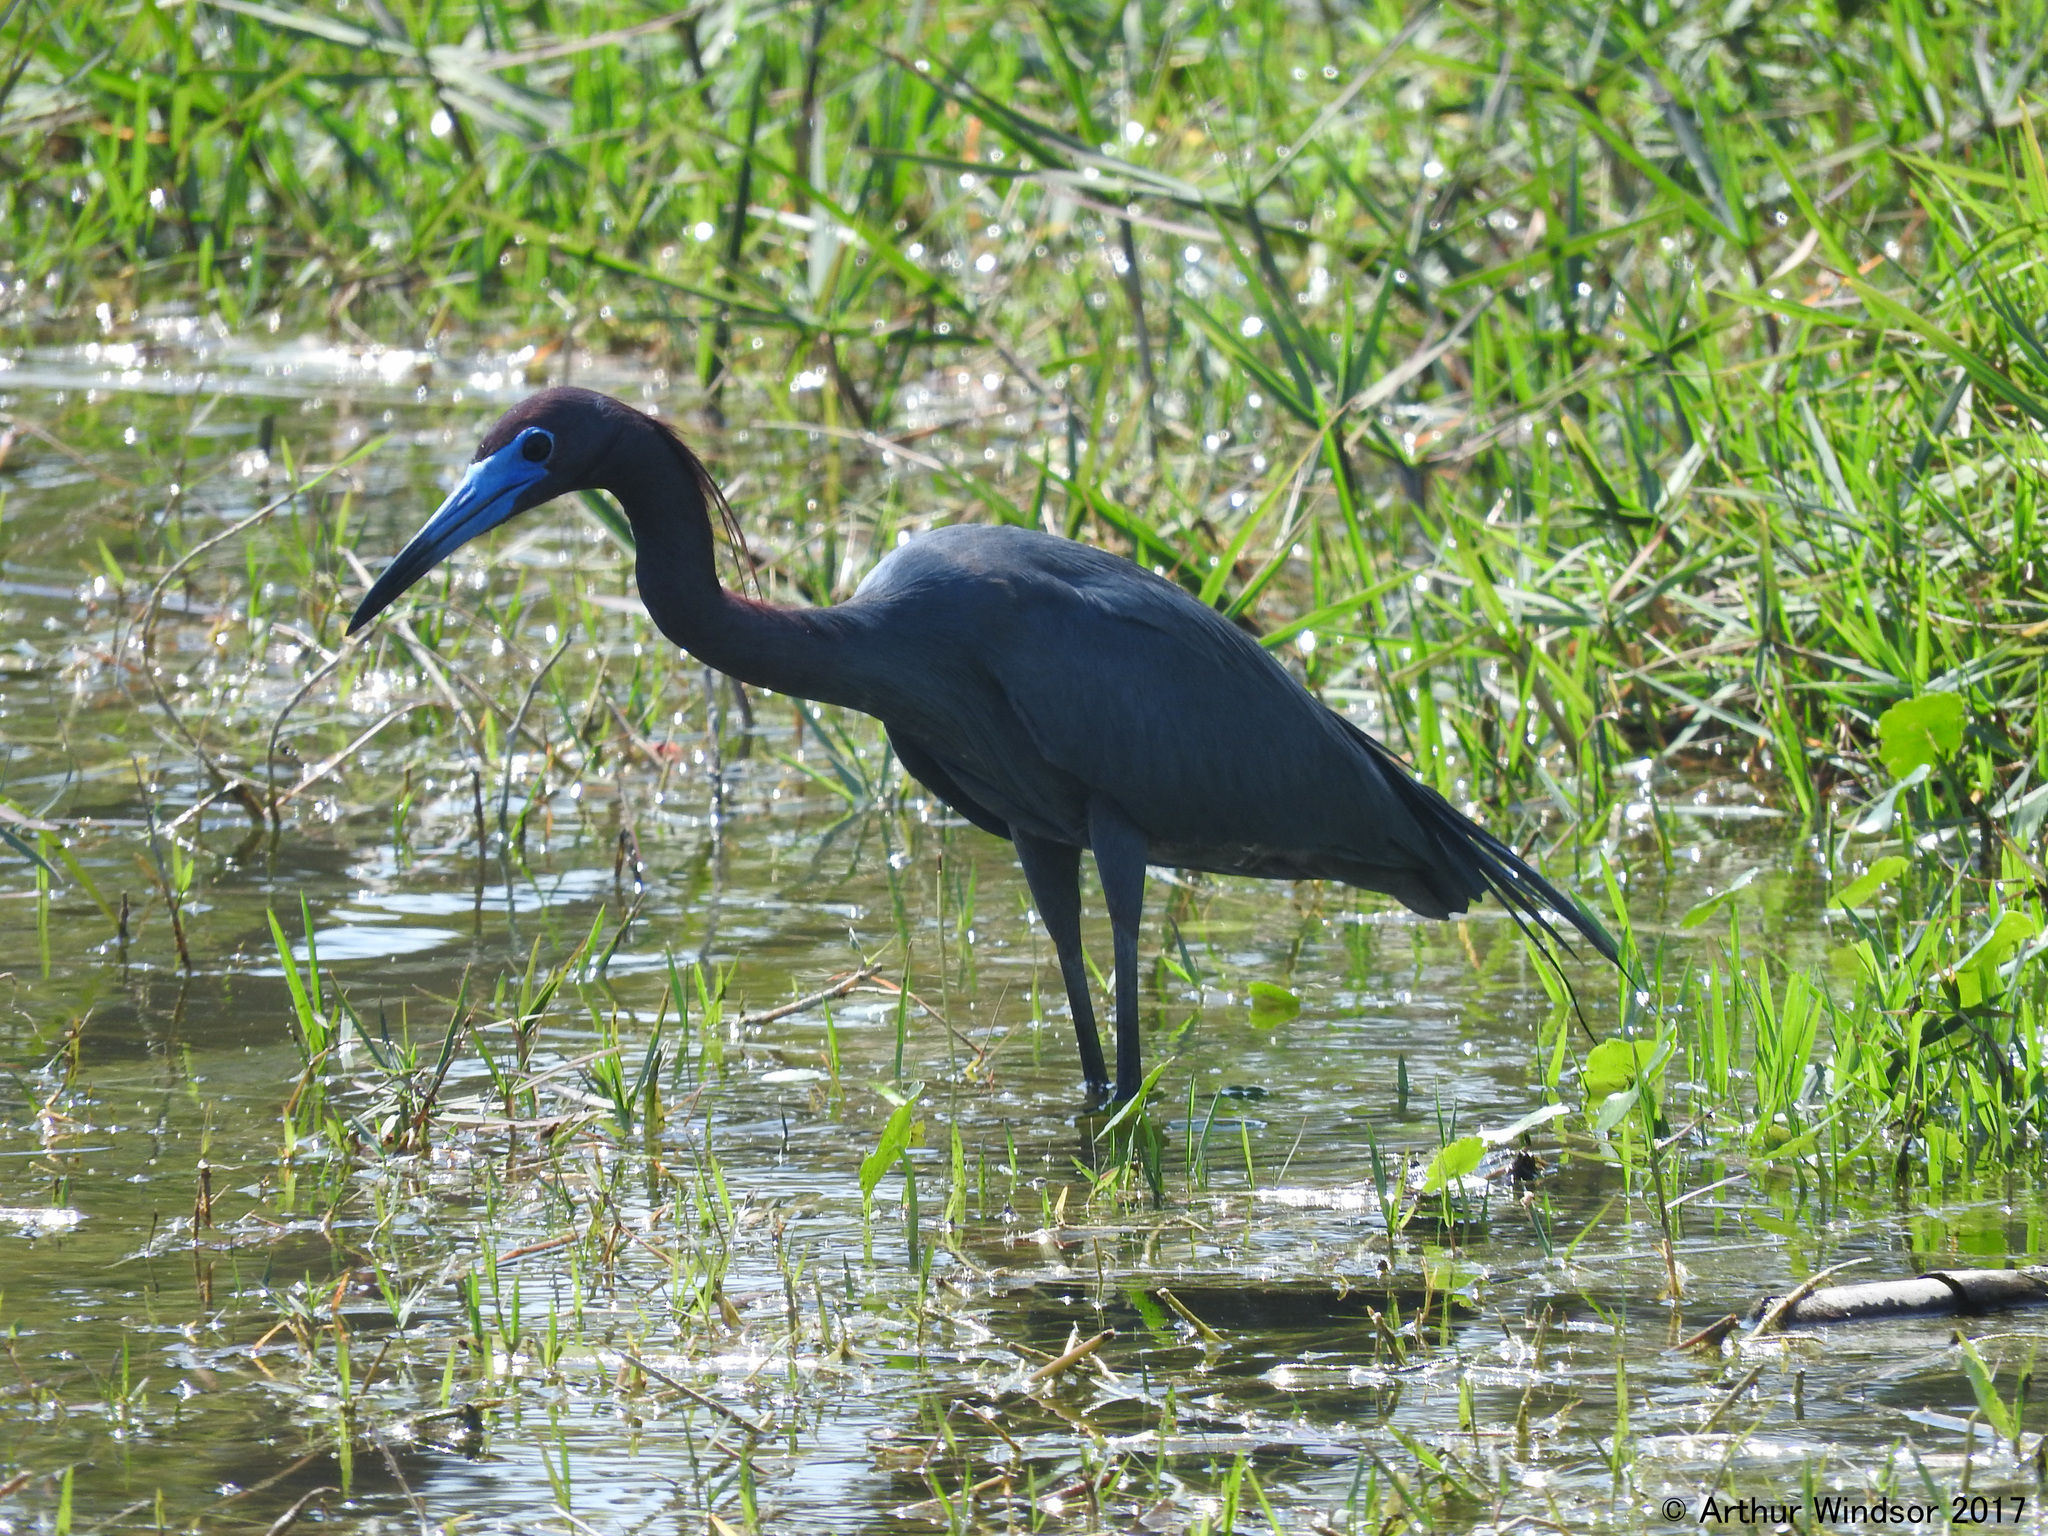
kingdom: Animalia
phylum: Chordata
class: Aves
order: Pelecaniformes
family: Ardeidae
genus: Egretta
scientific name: Egretta caerulea
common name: Little blue heron
